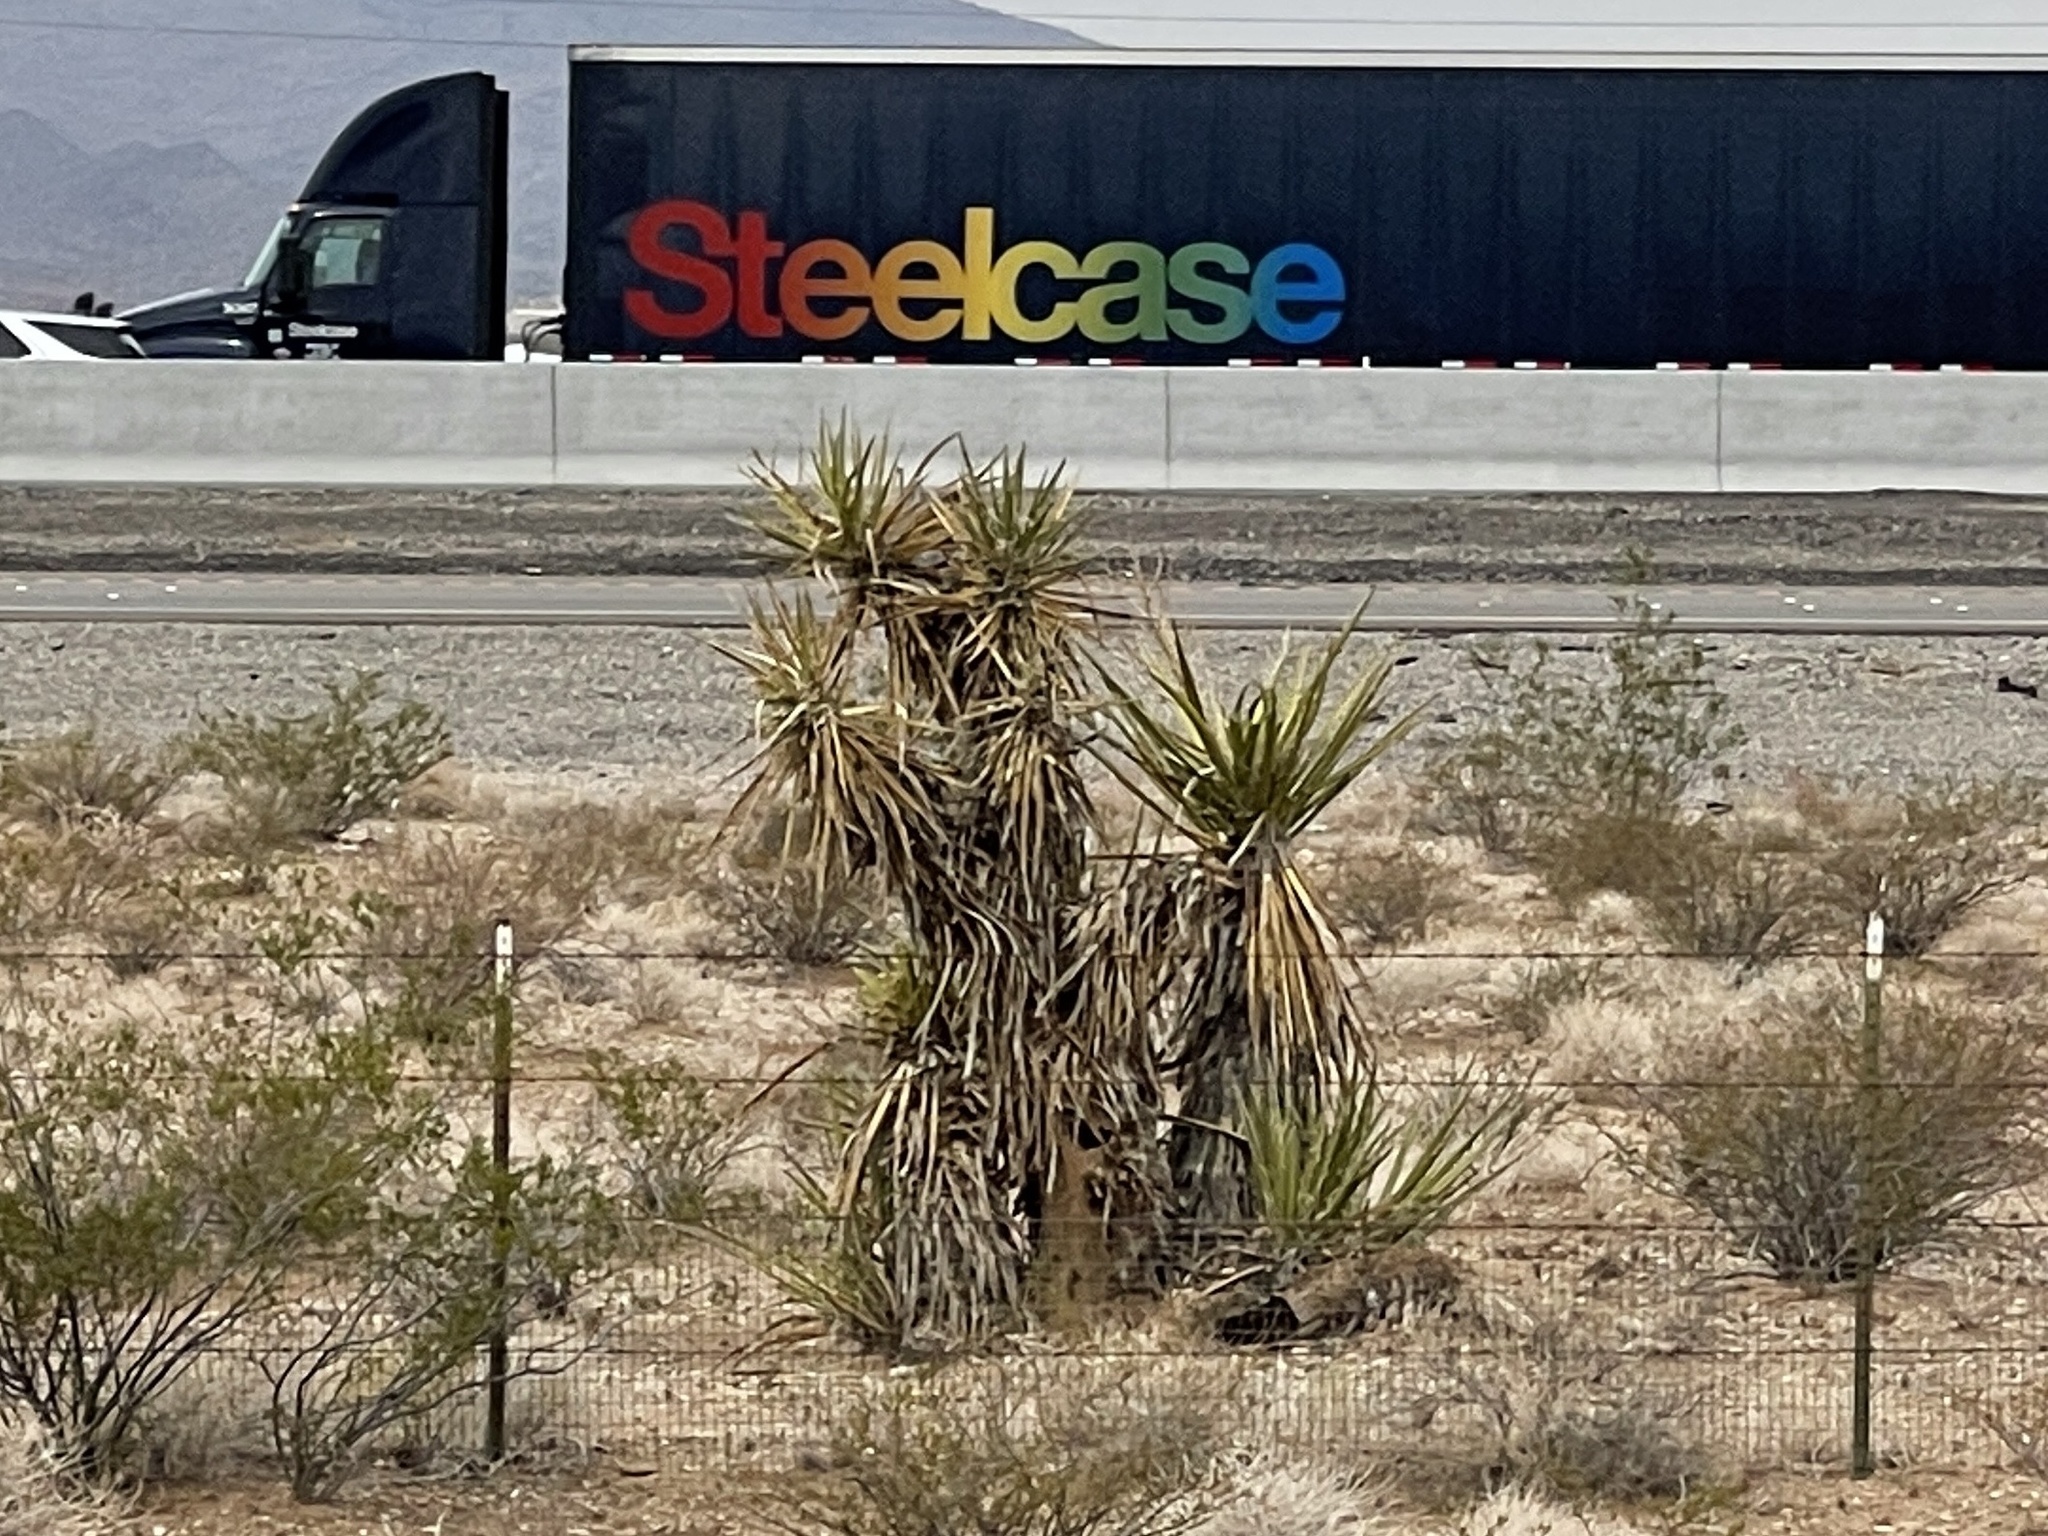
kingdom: Plantae
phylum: Tracheophyta
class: Liliopsida
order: Asparagales
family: Asparagaceae
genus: Yucca
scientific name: Yucca schidigera
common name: Mojave yucca
